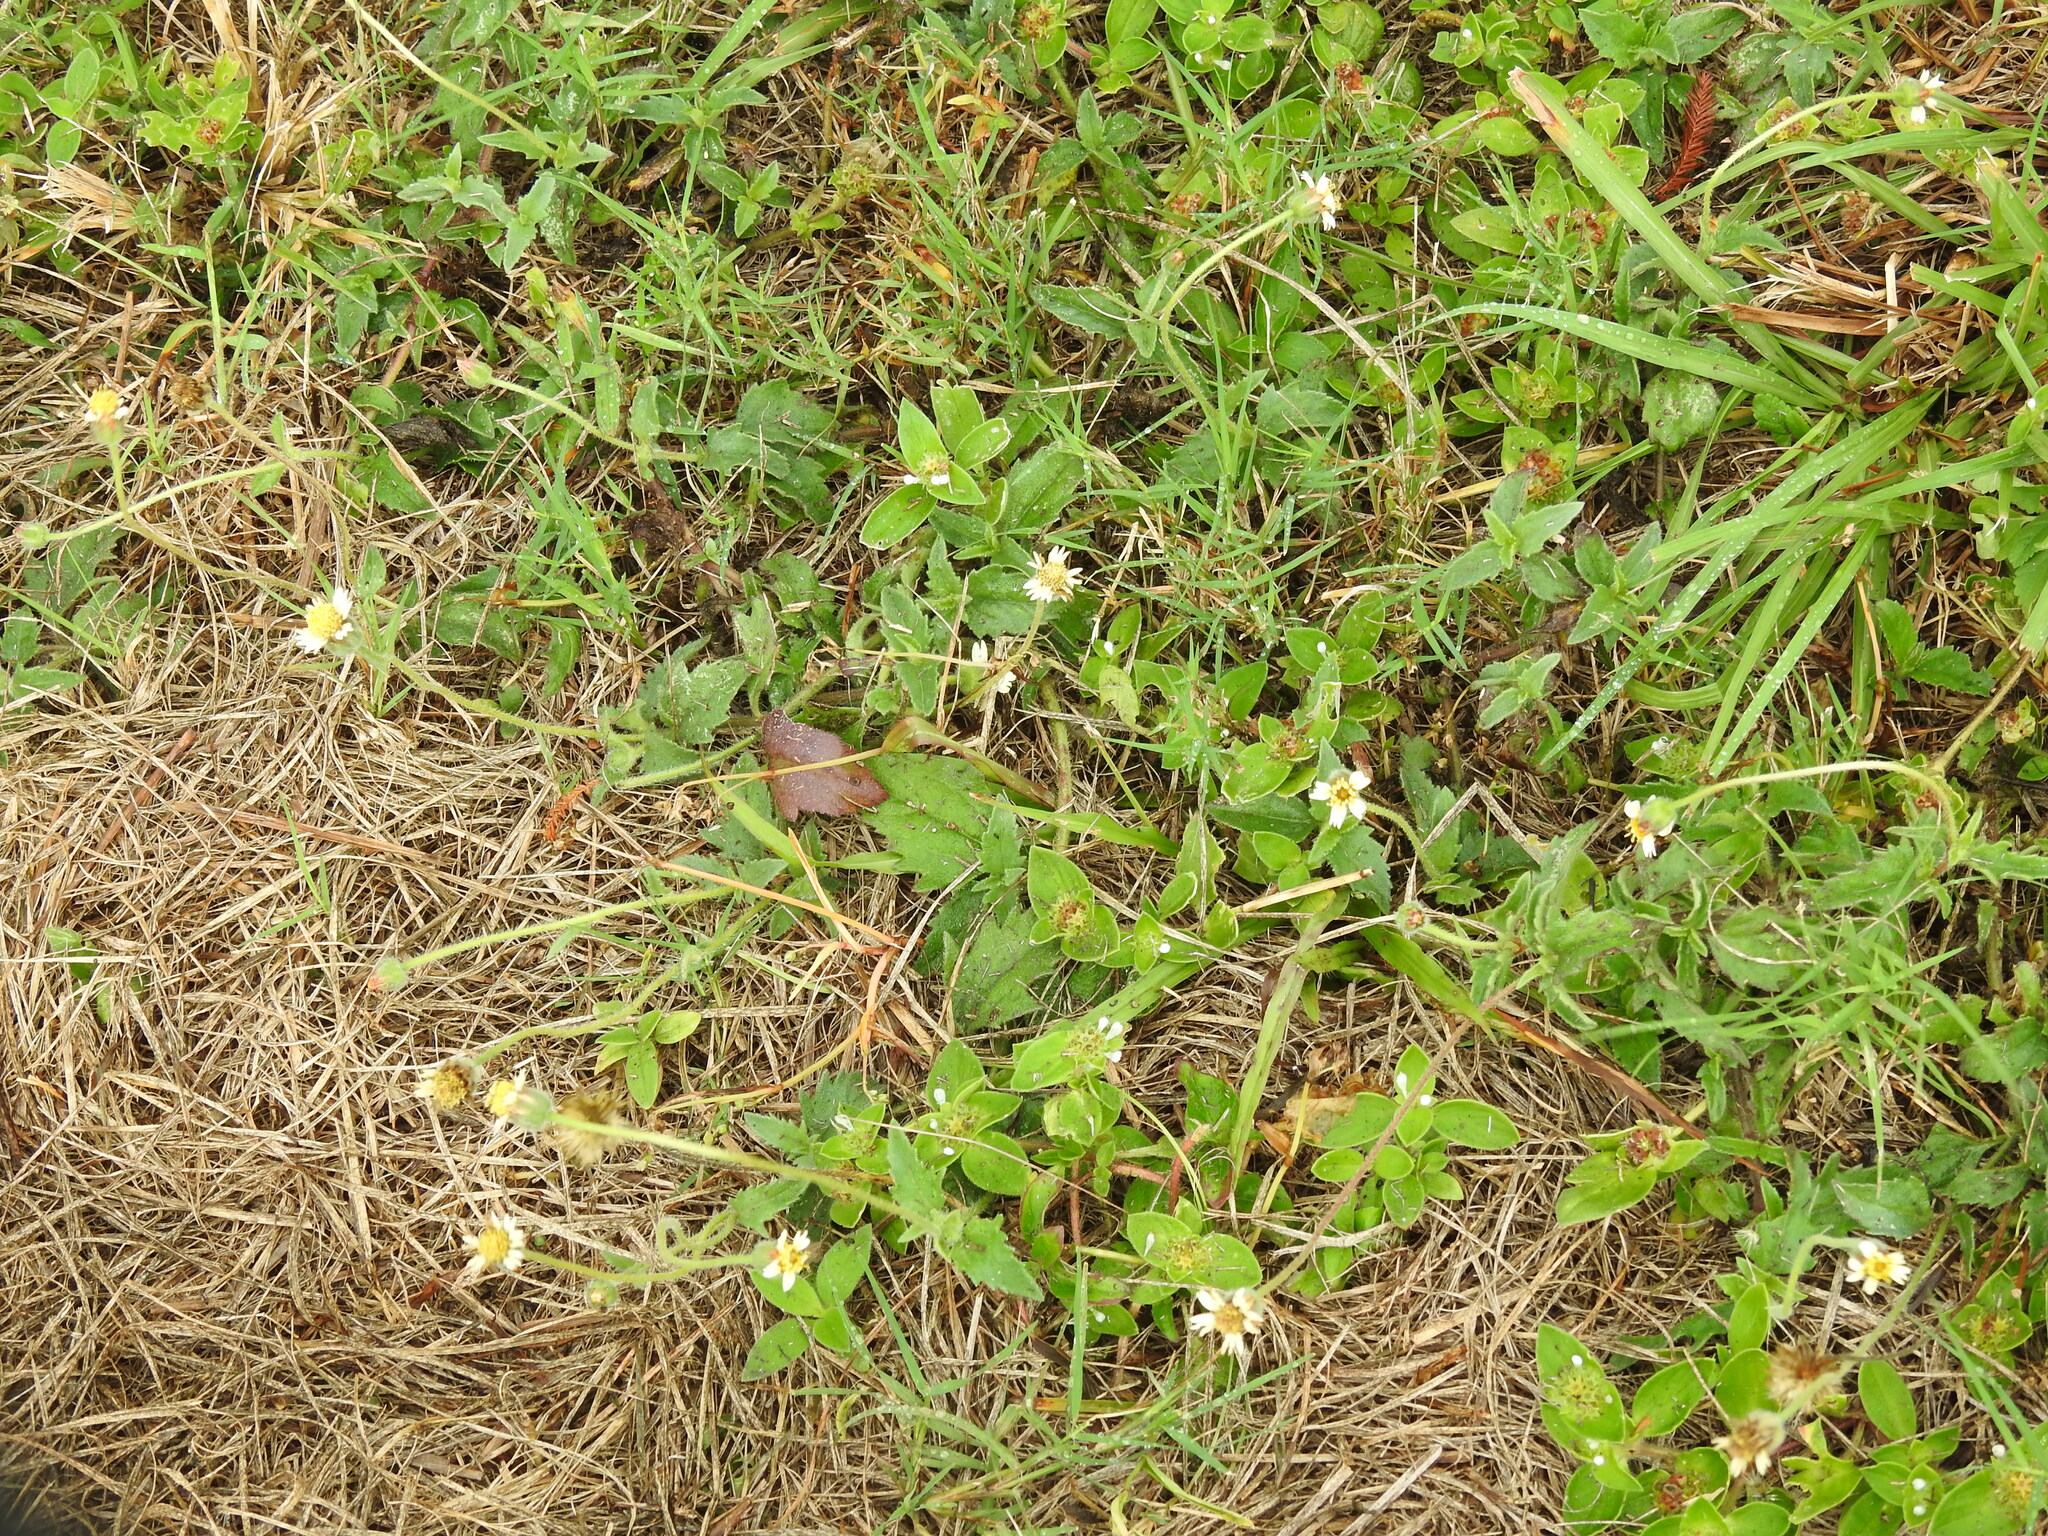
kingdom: Plantae
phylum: Tracheophyta
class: Magnoliopsida
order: Asterales
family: Asteraceae
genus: Tridax
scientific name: Tridax procumbens
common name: Coatbuttons
